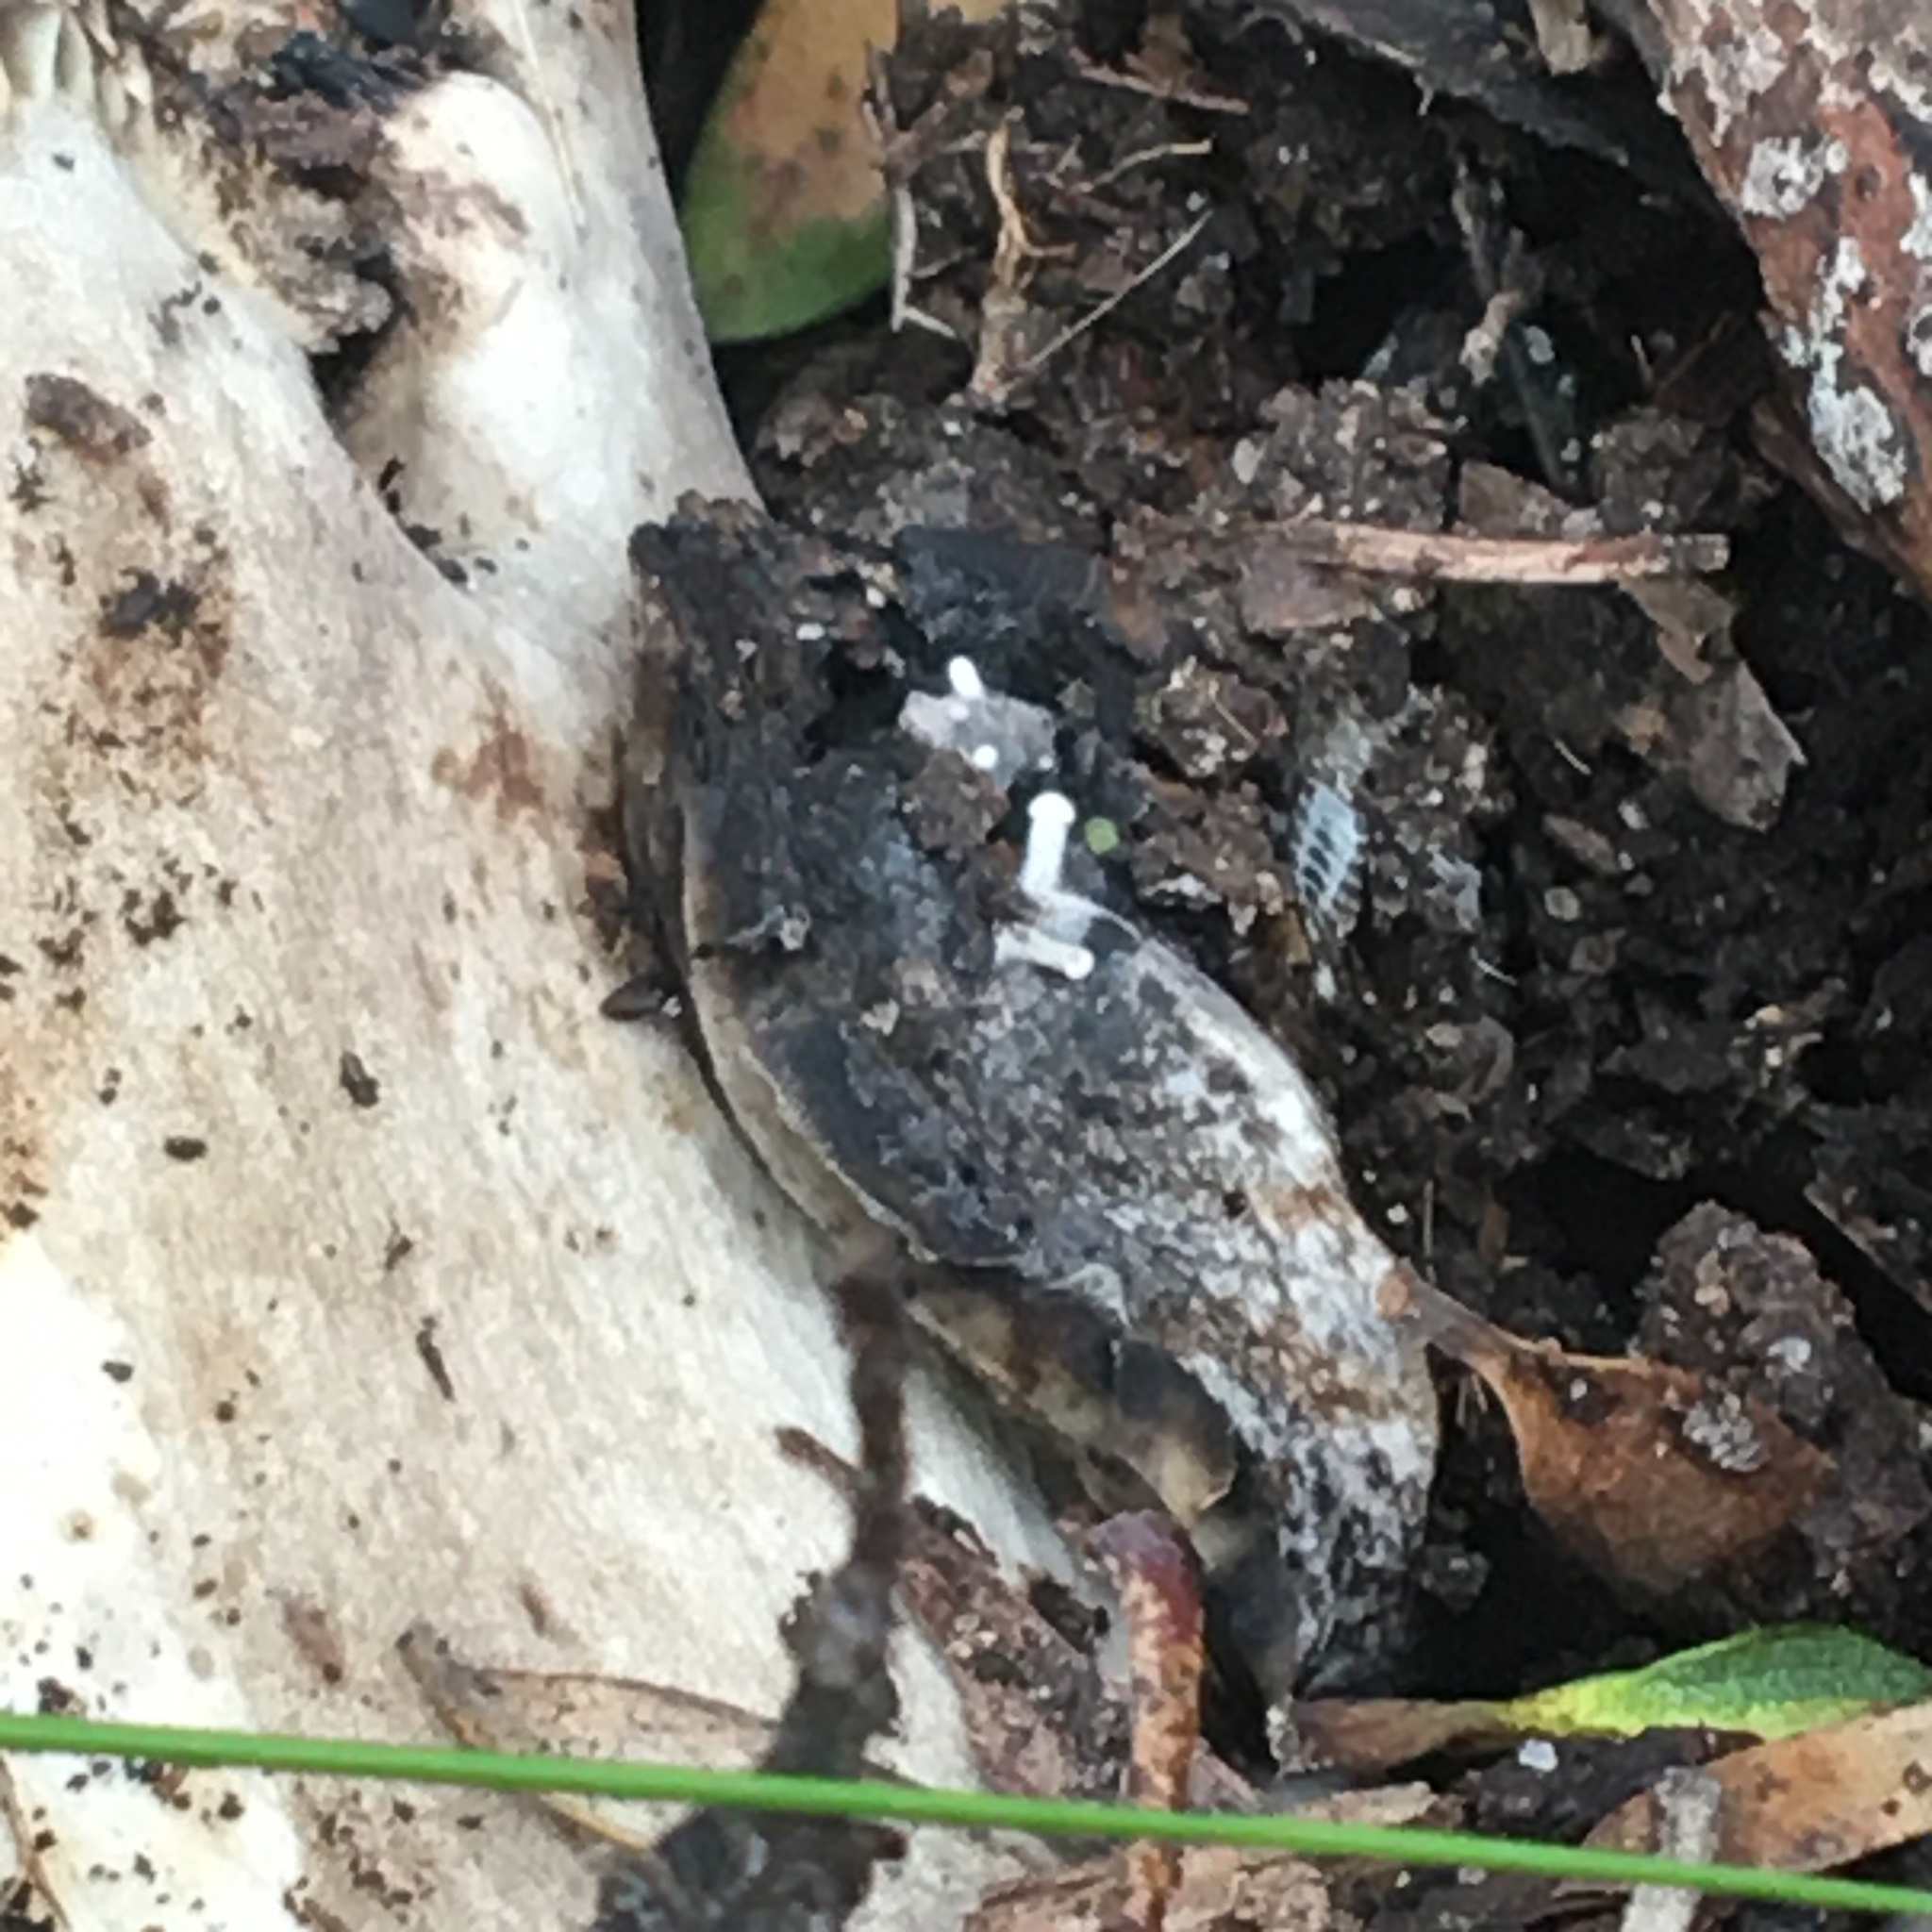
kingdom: Fungi
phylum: Basidiomycota
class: Agaricomycetes
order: Agaricales
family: Lyophyllaceae
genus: Asterophora
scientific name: Asterophora mirabilis
